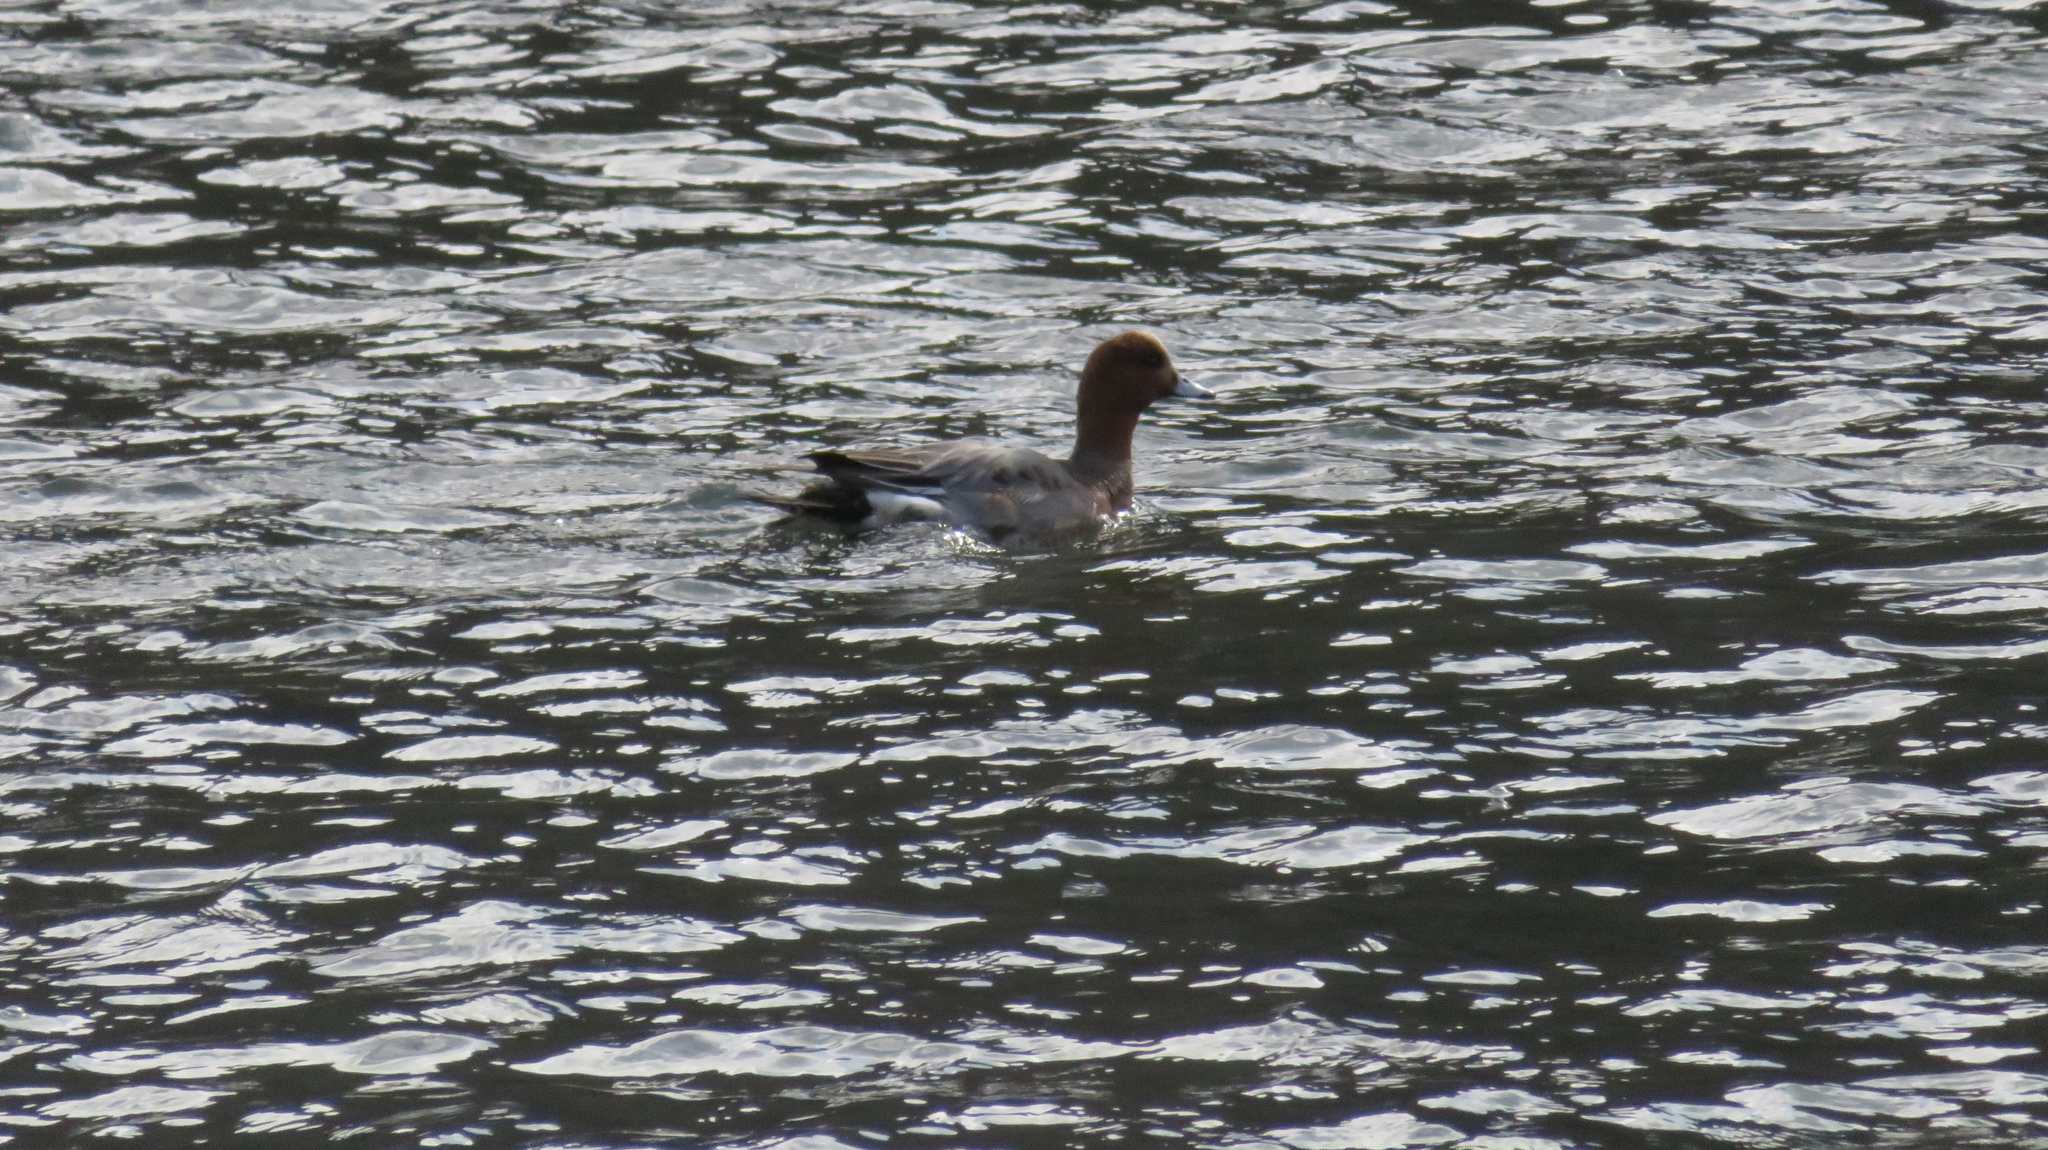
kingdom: Animalia
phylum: Chordata
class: Aves
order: Anseriformes
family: Anatidae
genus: Mareca
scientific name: Mareca penelope
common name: Eurasian wigeon
